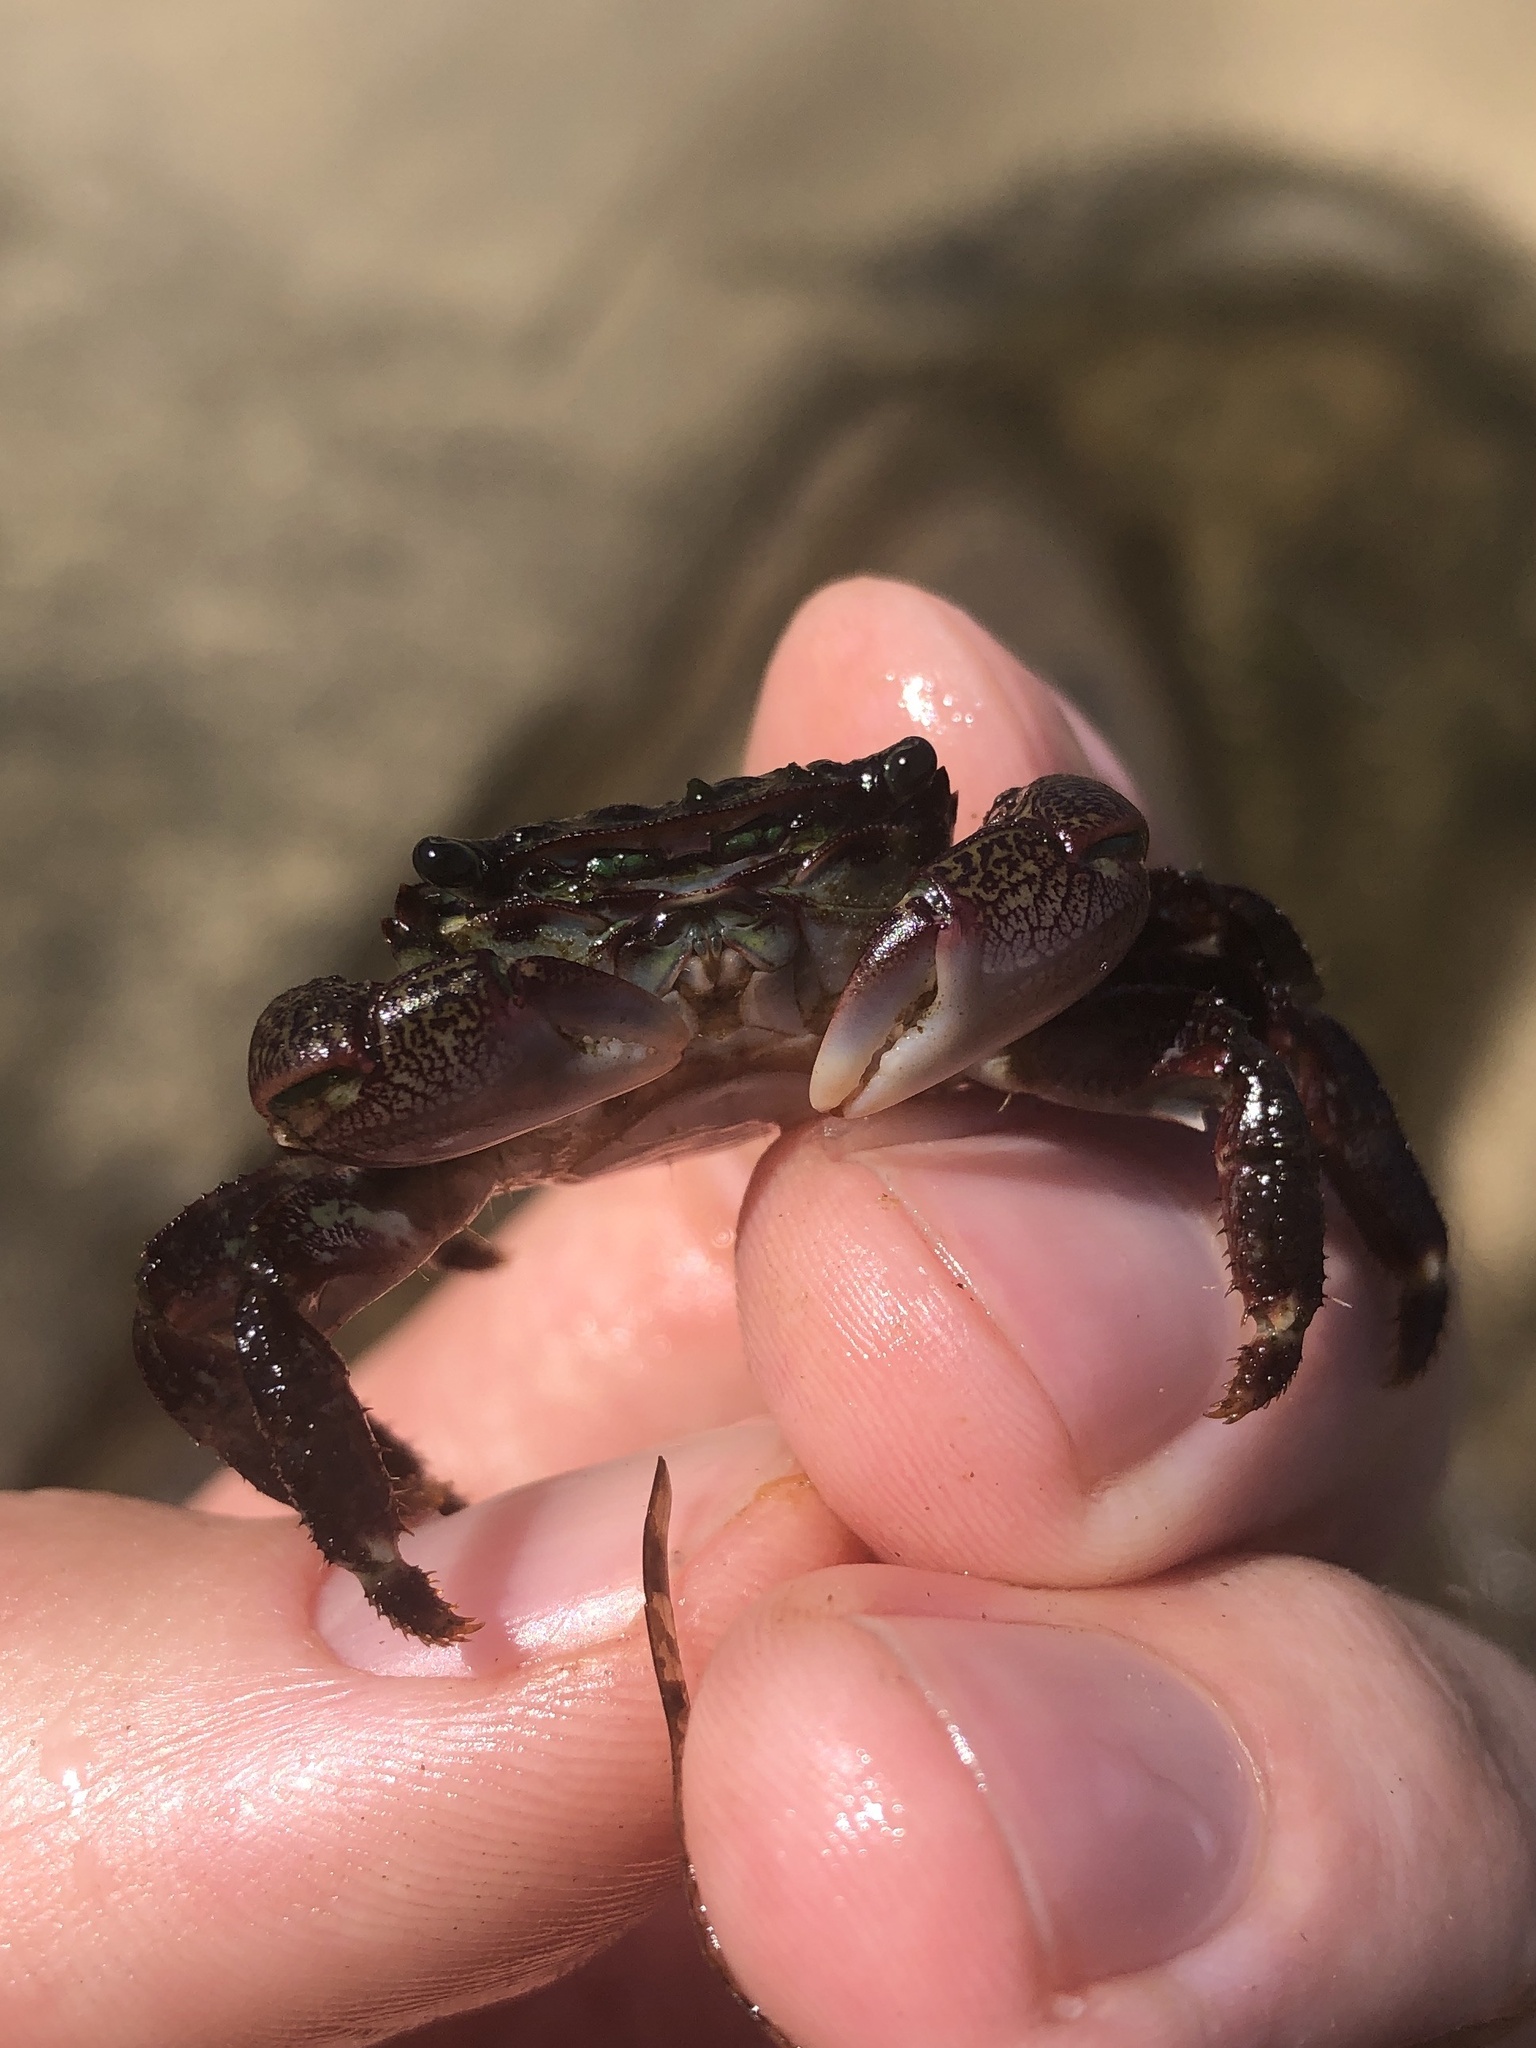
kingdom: Animalia
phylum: Arthropoda
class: Malacostraca
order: Decapoda
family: Grapsidae
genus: Pachygrapsus
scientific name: Pachygrapsus crassipes
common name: Striped shore crab
